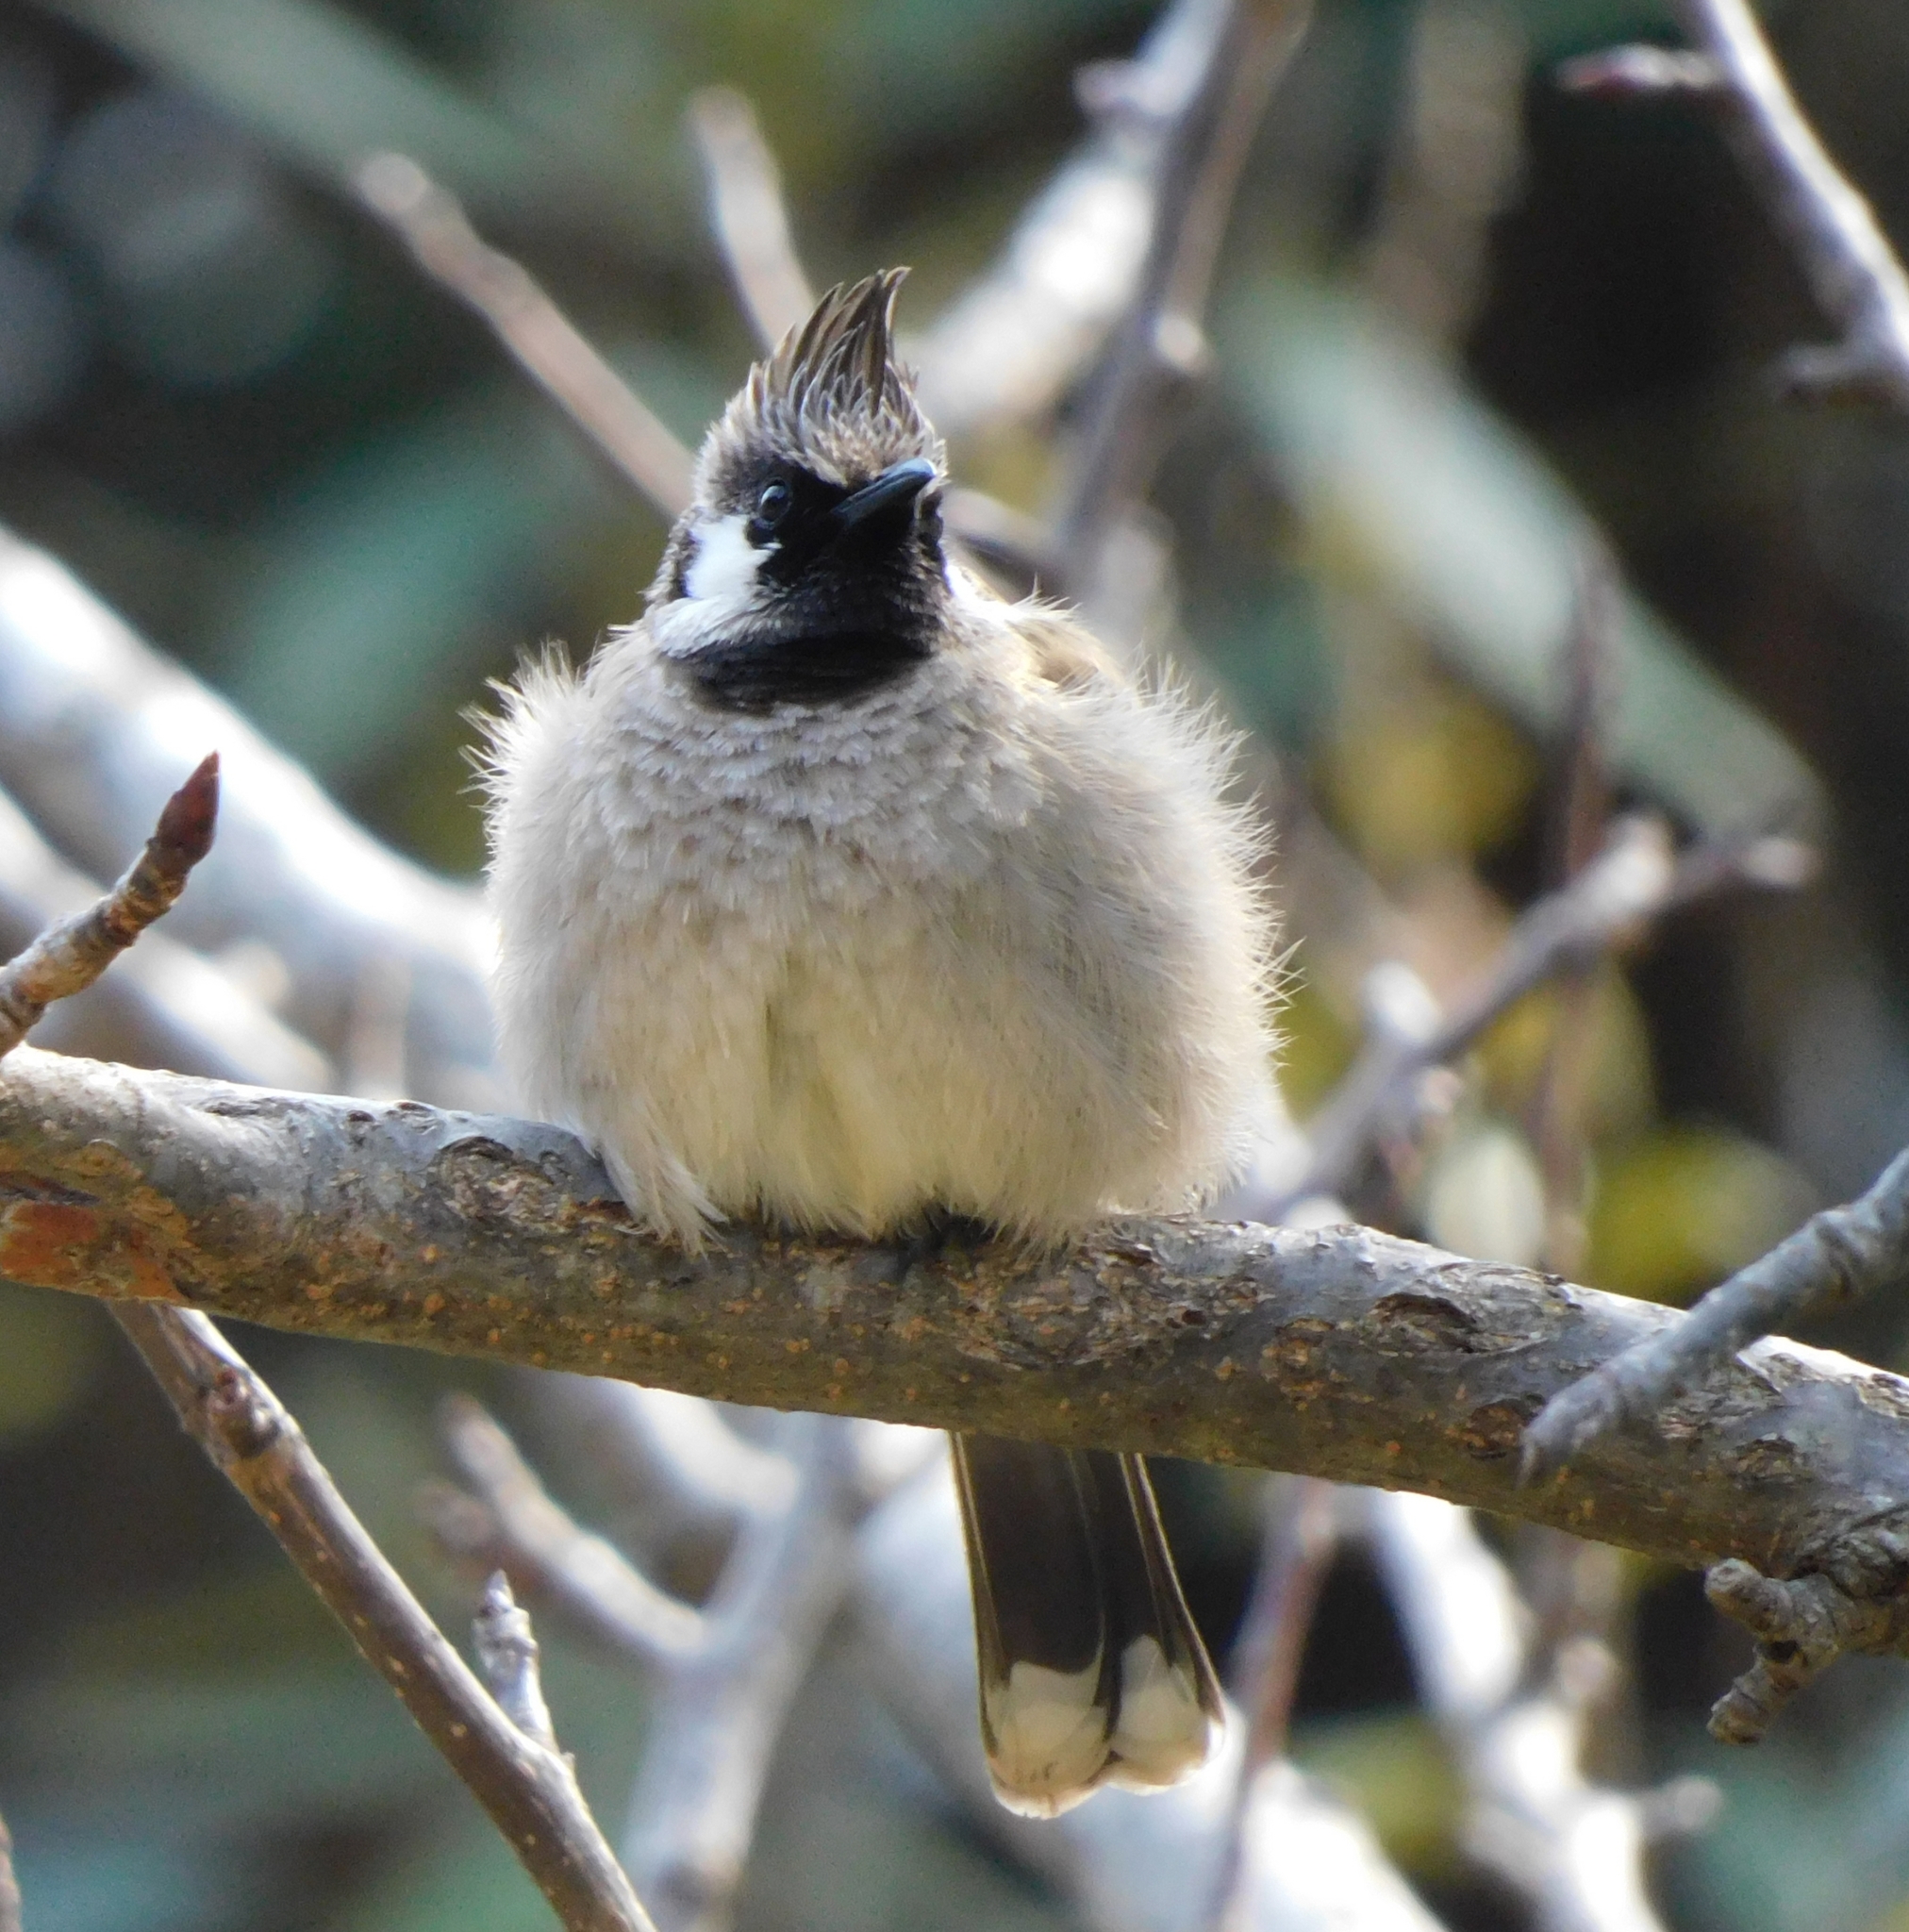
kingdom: Animalia
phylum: Chordata
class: Aves
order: Passeriformes
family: Pycnonotidae
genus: Pycnonotus
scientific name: Pycnonotus leucogenys
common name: Himalayan bulbul
